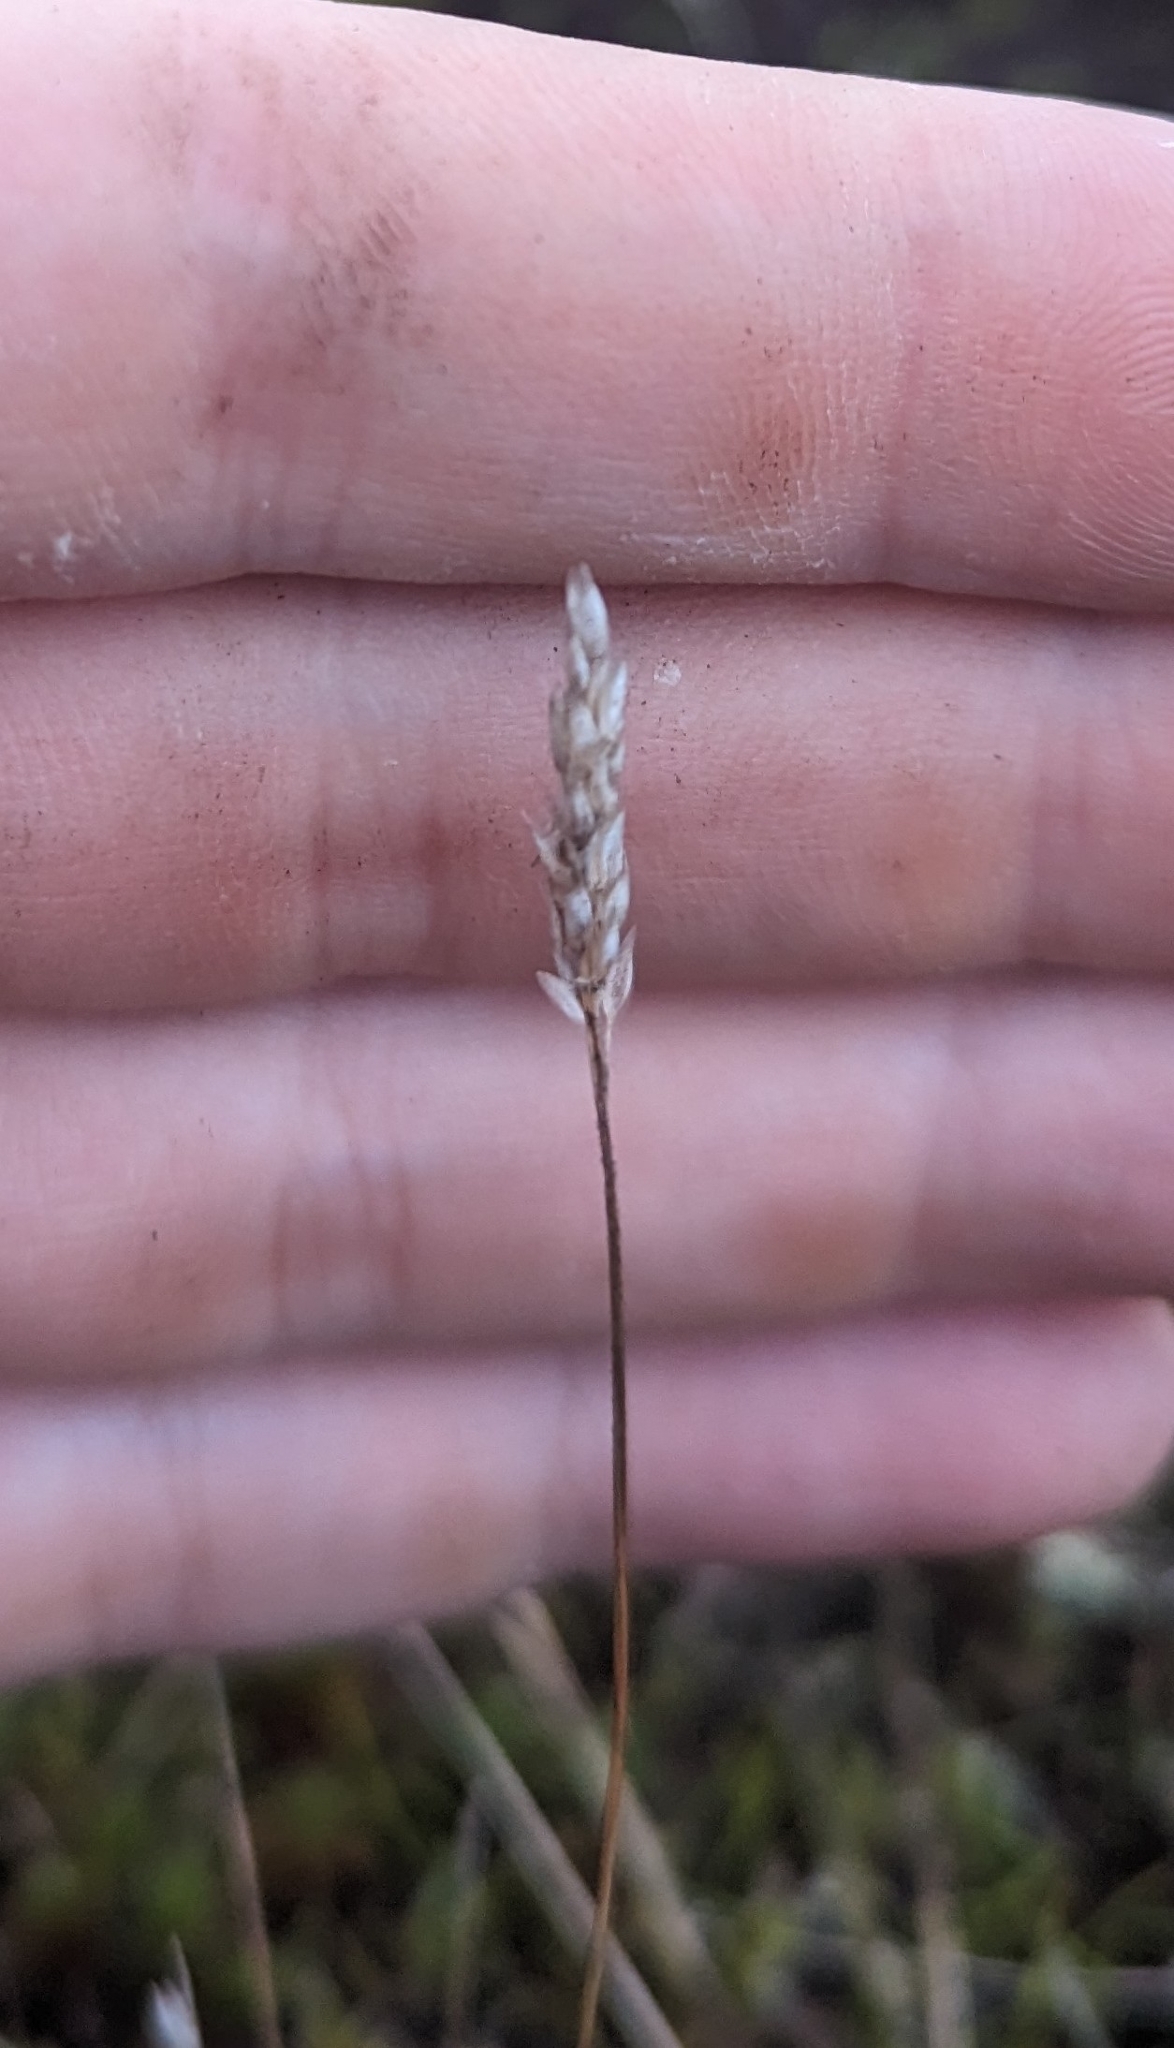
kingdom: Plantae
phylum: Tracheophyta
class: Liliopsida
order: Poales
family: Poaceae
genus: Aira
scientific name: Aira praecox
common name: Early hair-grass
